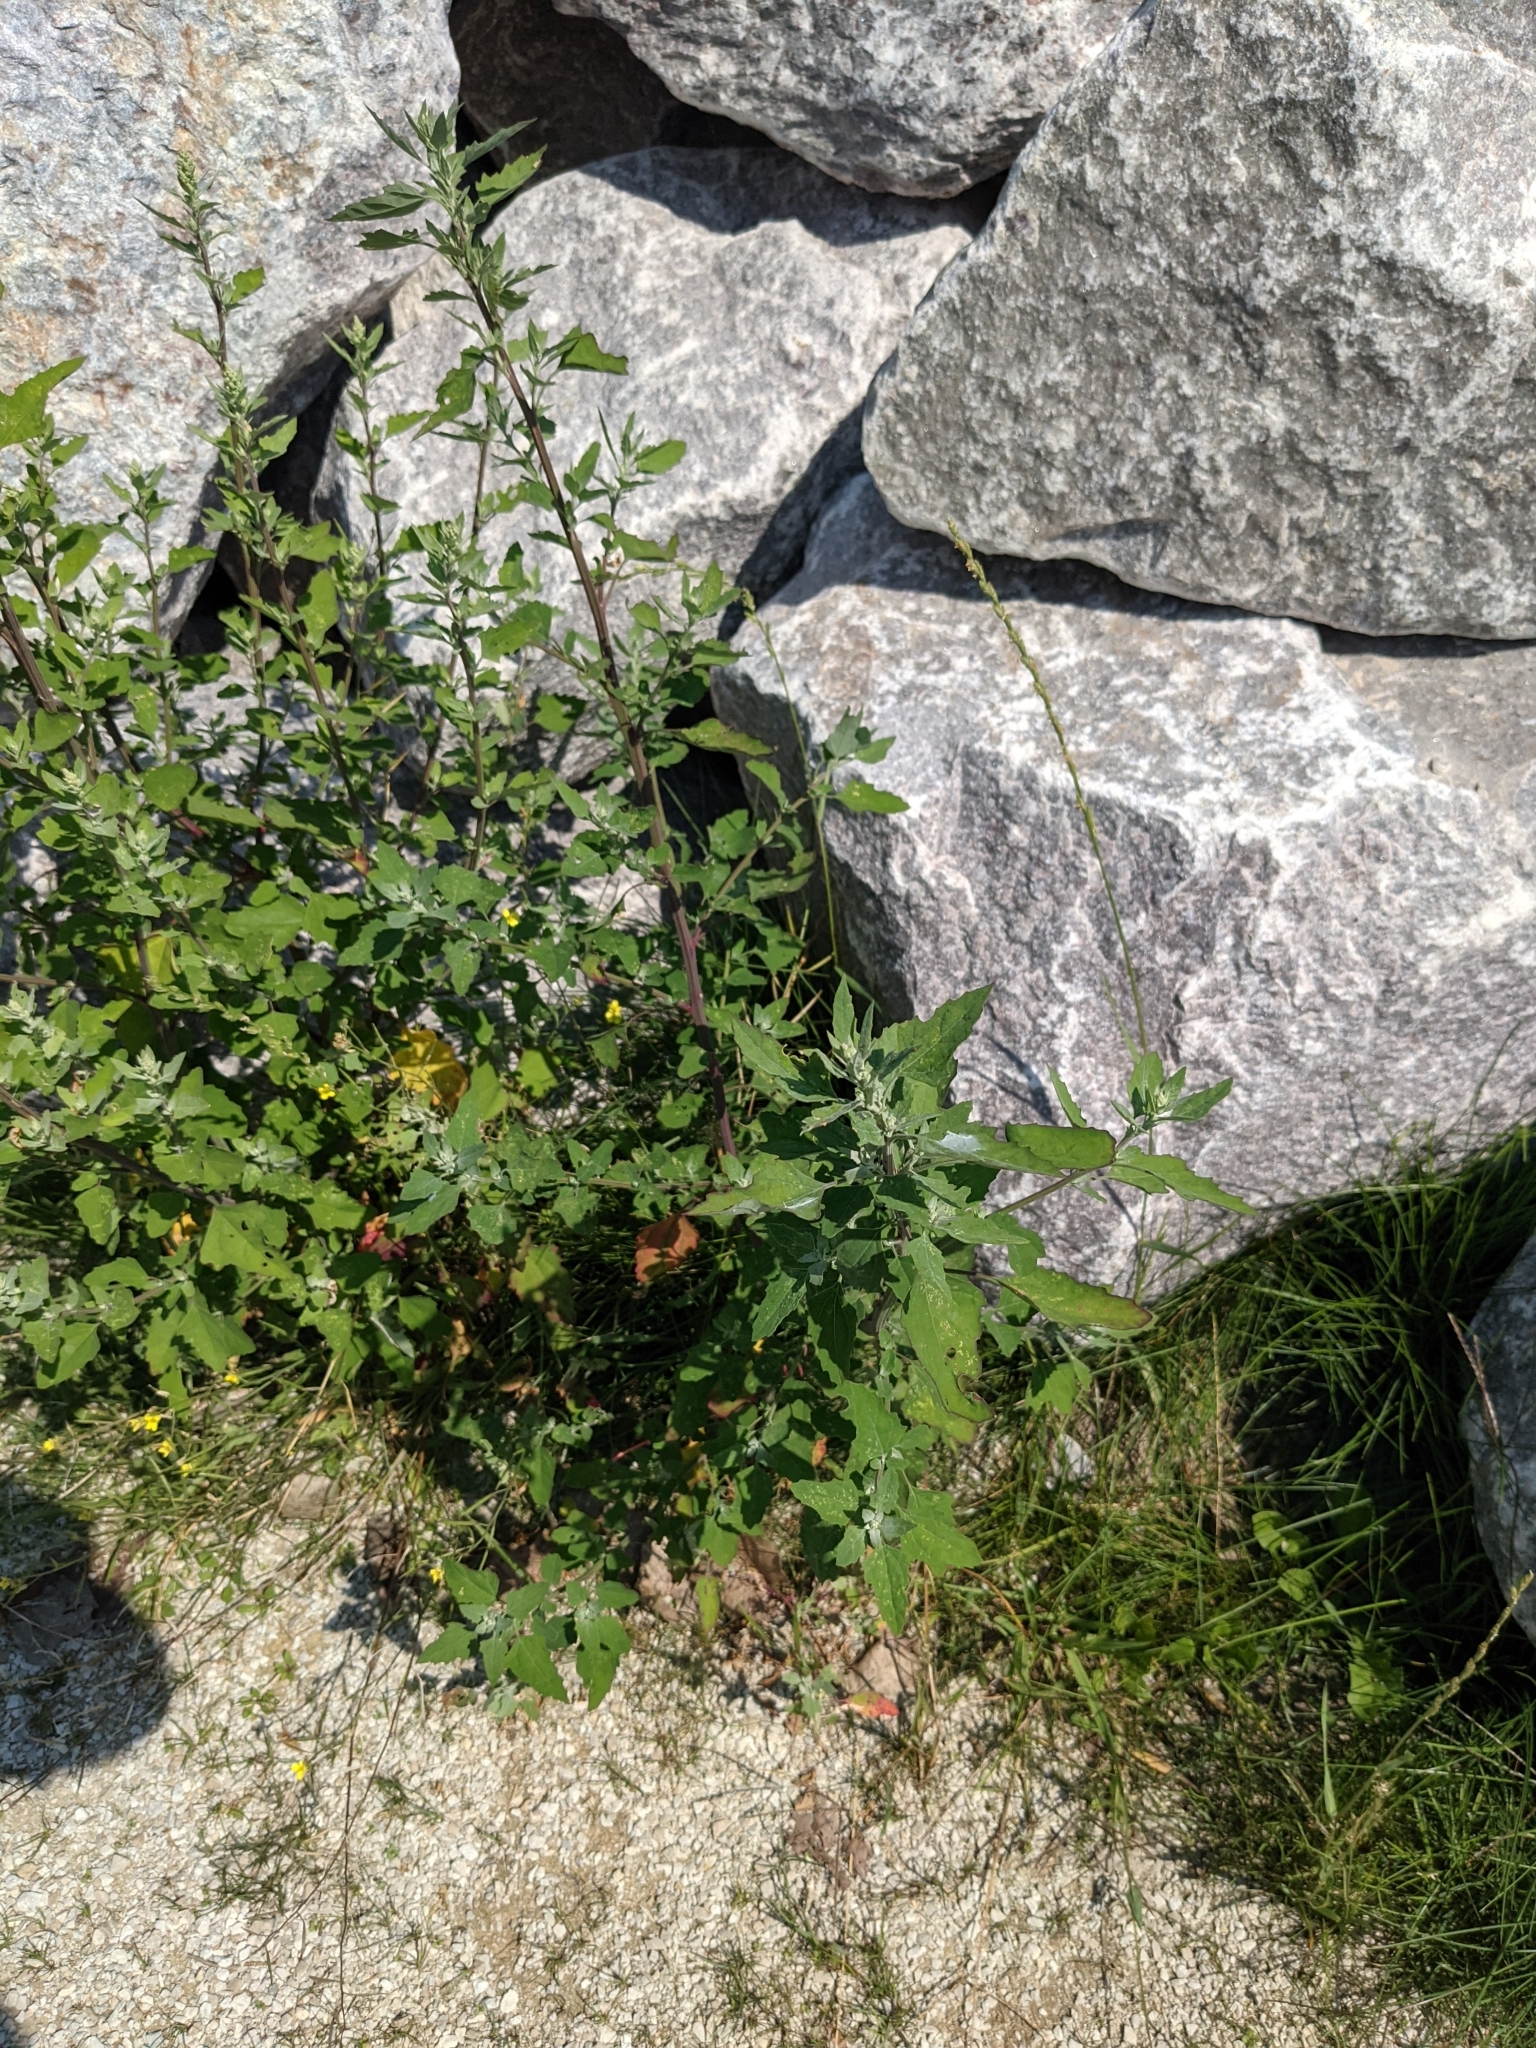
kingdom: Plantae
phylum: Tracheophyta
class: Magnoliopsida
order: Caryophyllales
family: Amaranthaceae
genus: Chenopodium
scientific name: Chenopodium album
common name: Fat-hen
